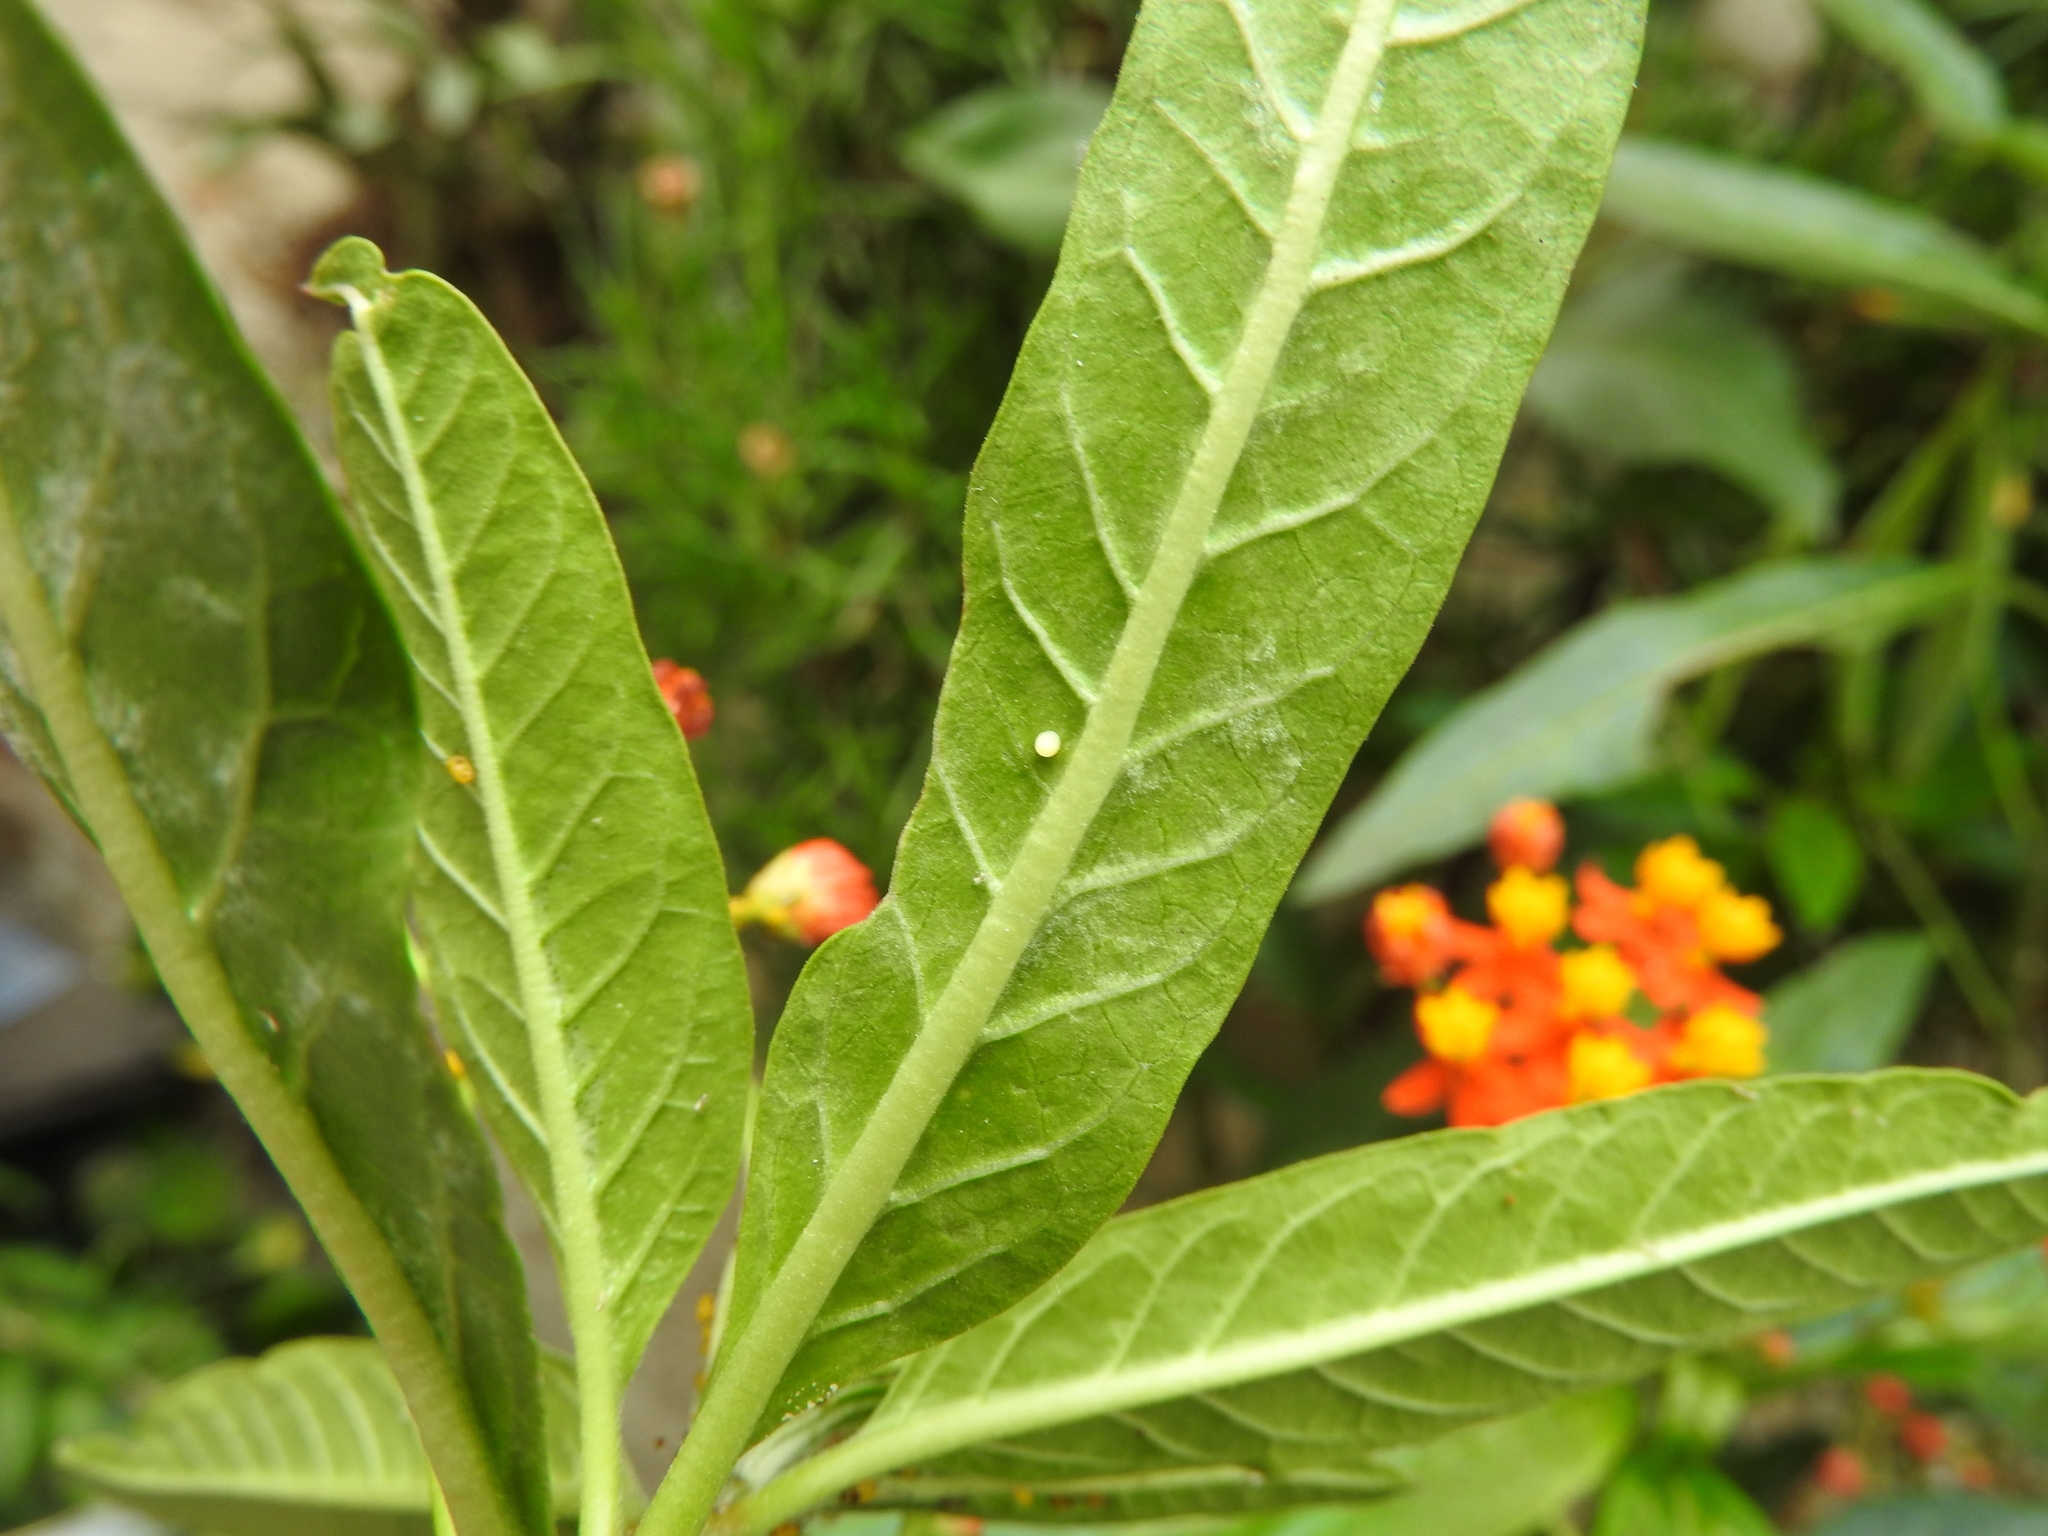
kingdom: Animalia
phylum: Arthropoda
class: Insecta
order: Lepidoptera
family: Nymphalidae
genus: Danaus
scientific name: Danaus plexippus
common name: Monarch
